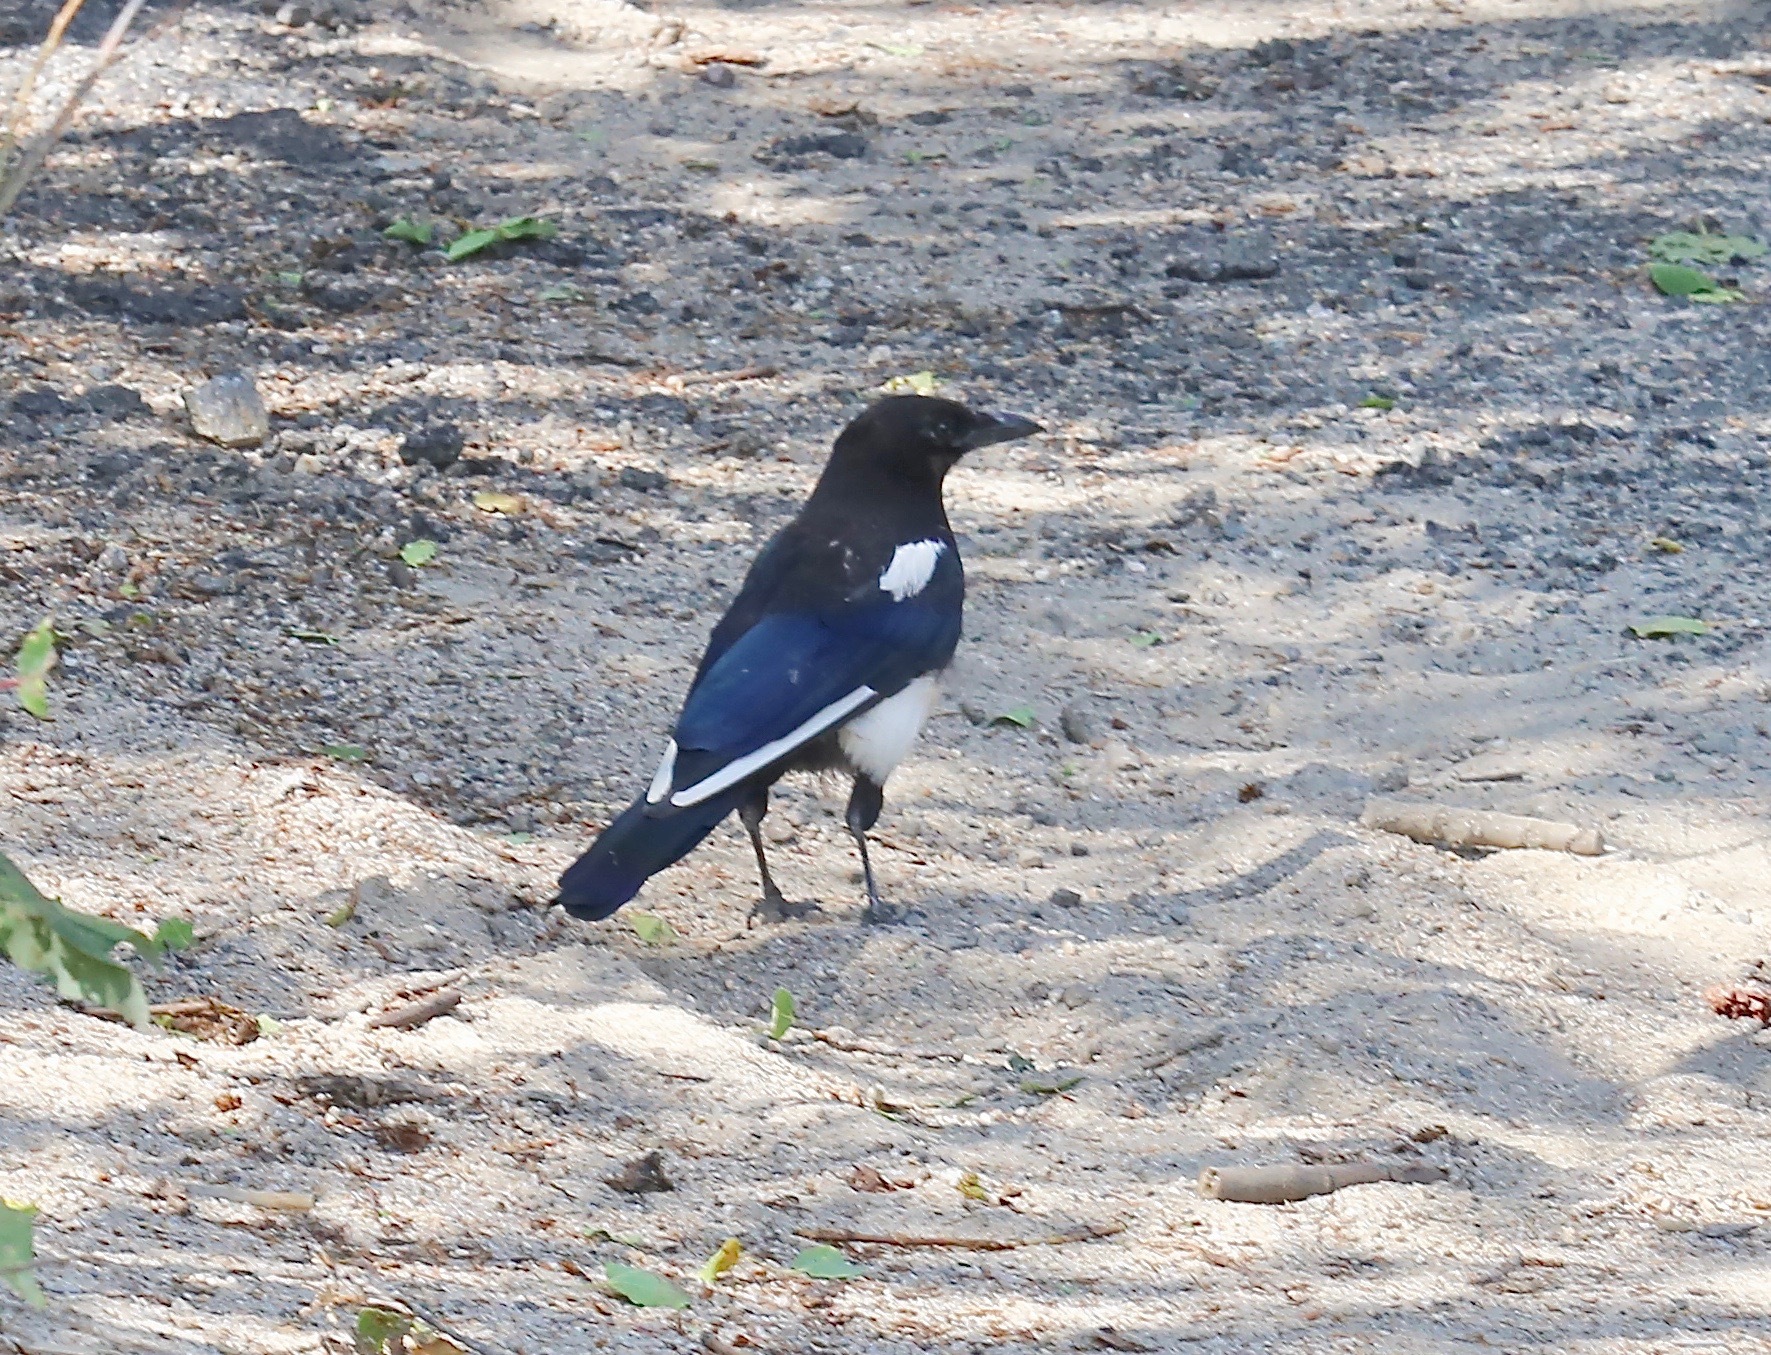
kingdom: Animalia
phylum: Chordata
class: Aves
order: Passeriformes
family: Corvidae
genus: Pica
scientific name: Pica hudsonia
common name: Black-billed magpie
